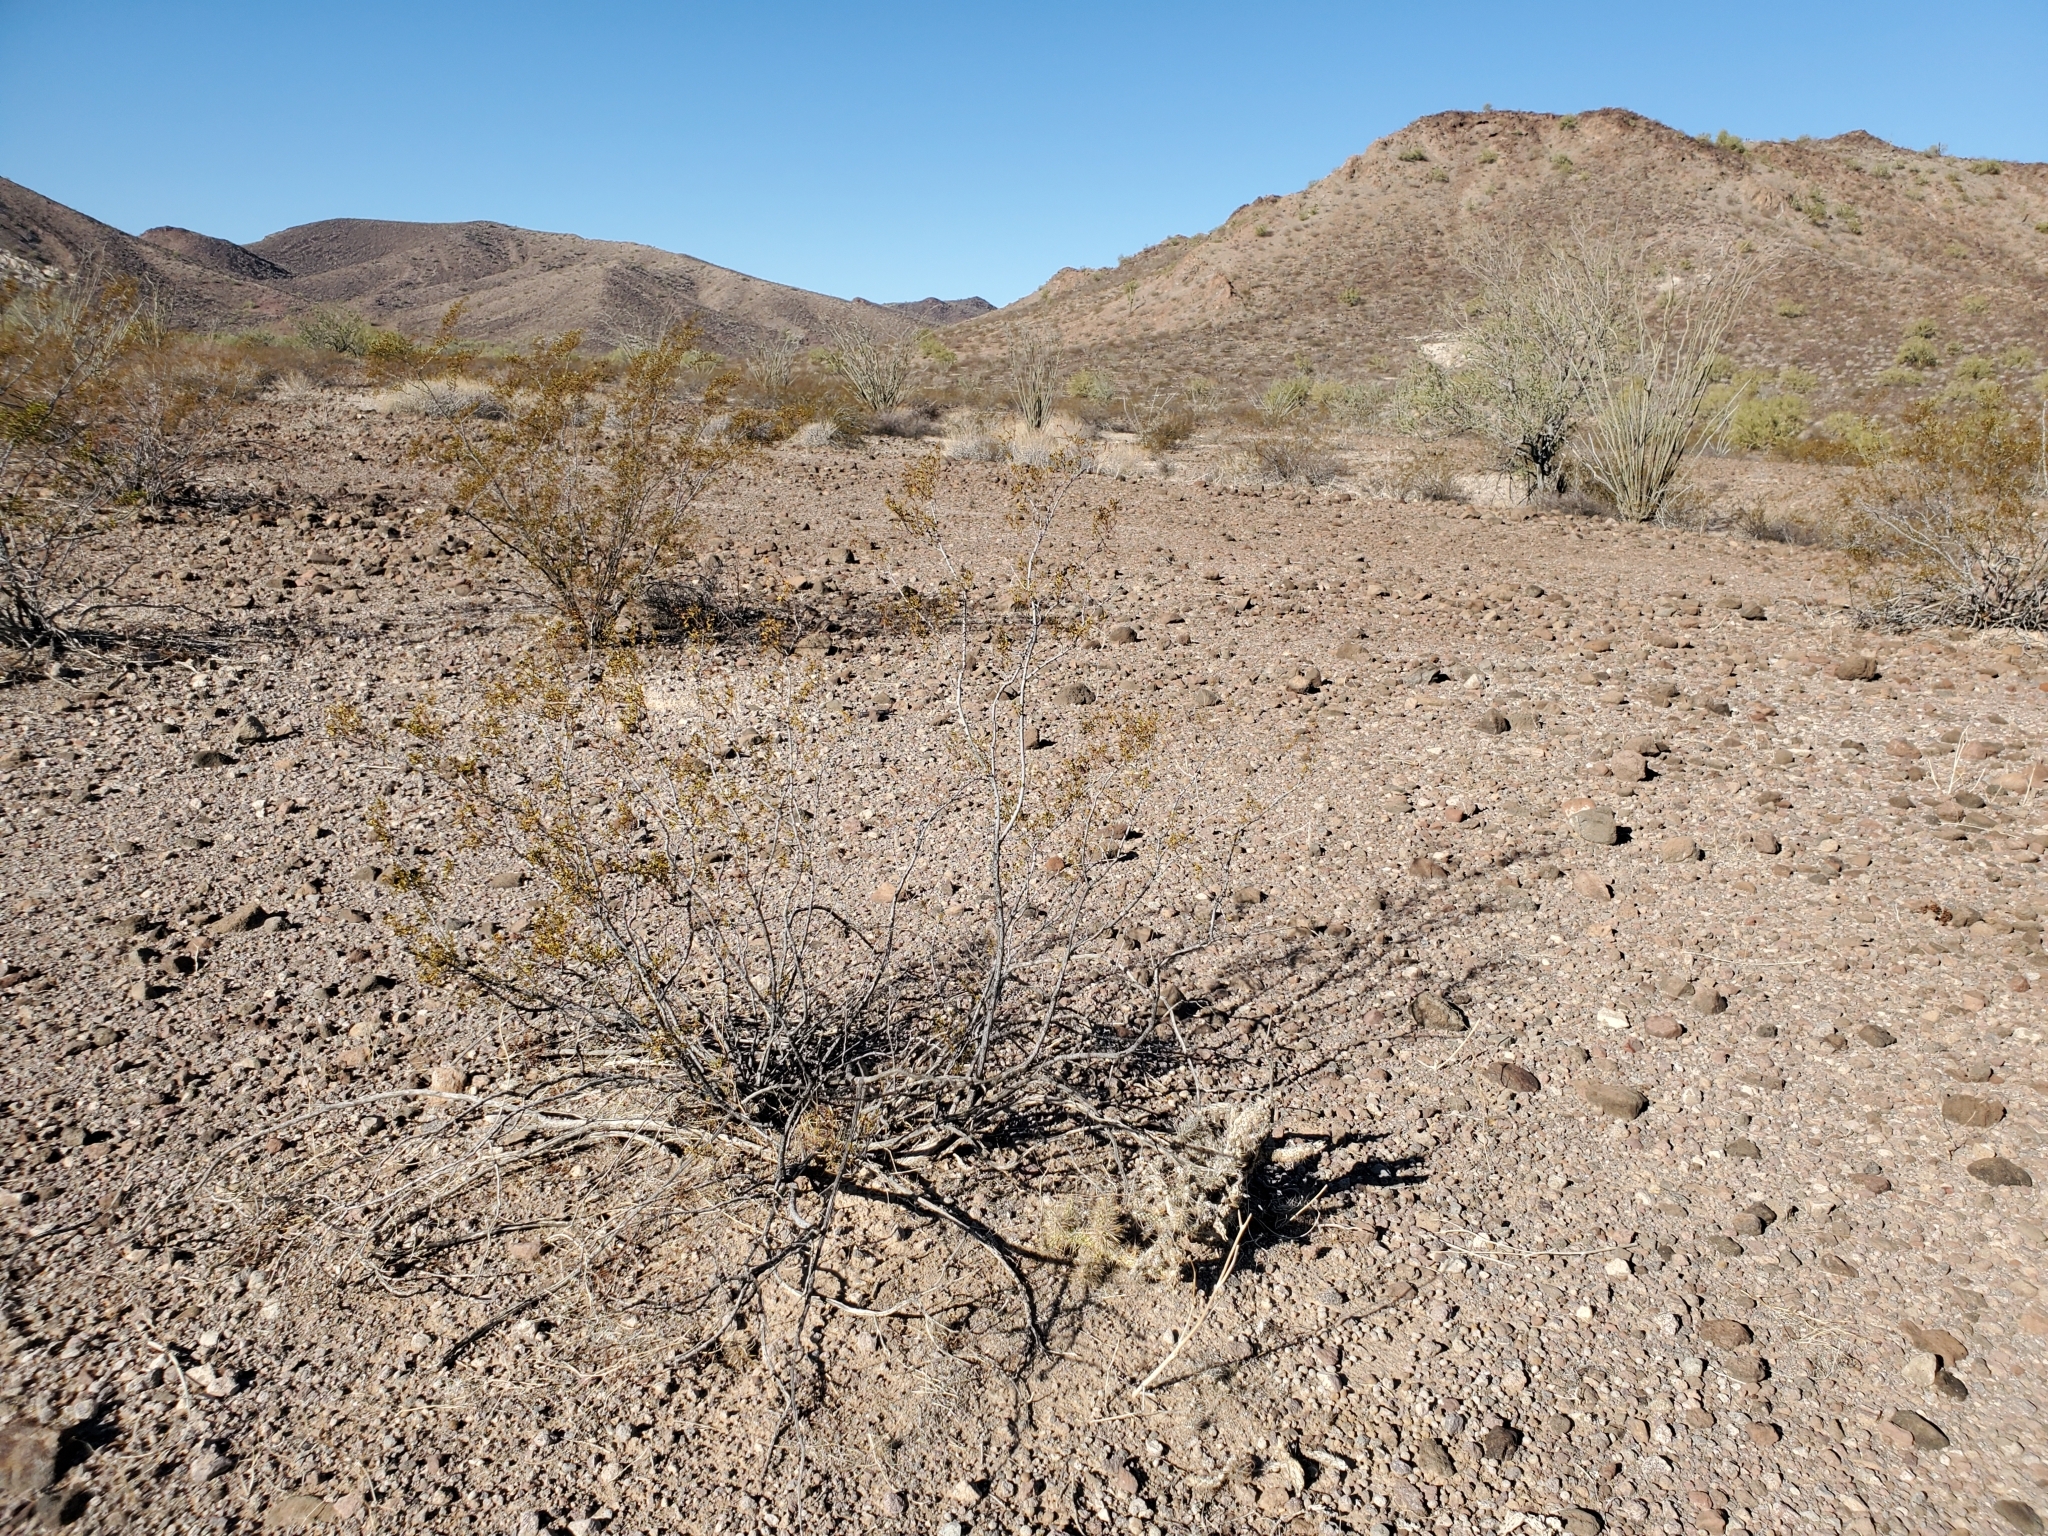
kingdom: Plantae
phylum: Tracheophyta
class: Magnoliopsida
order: Zygophyllales
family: Zygophyllaceae
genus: Larrea
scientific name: Larrea tridentata
